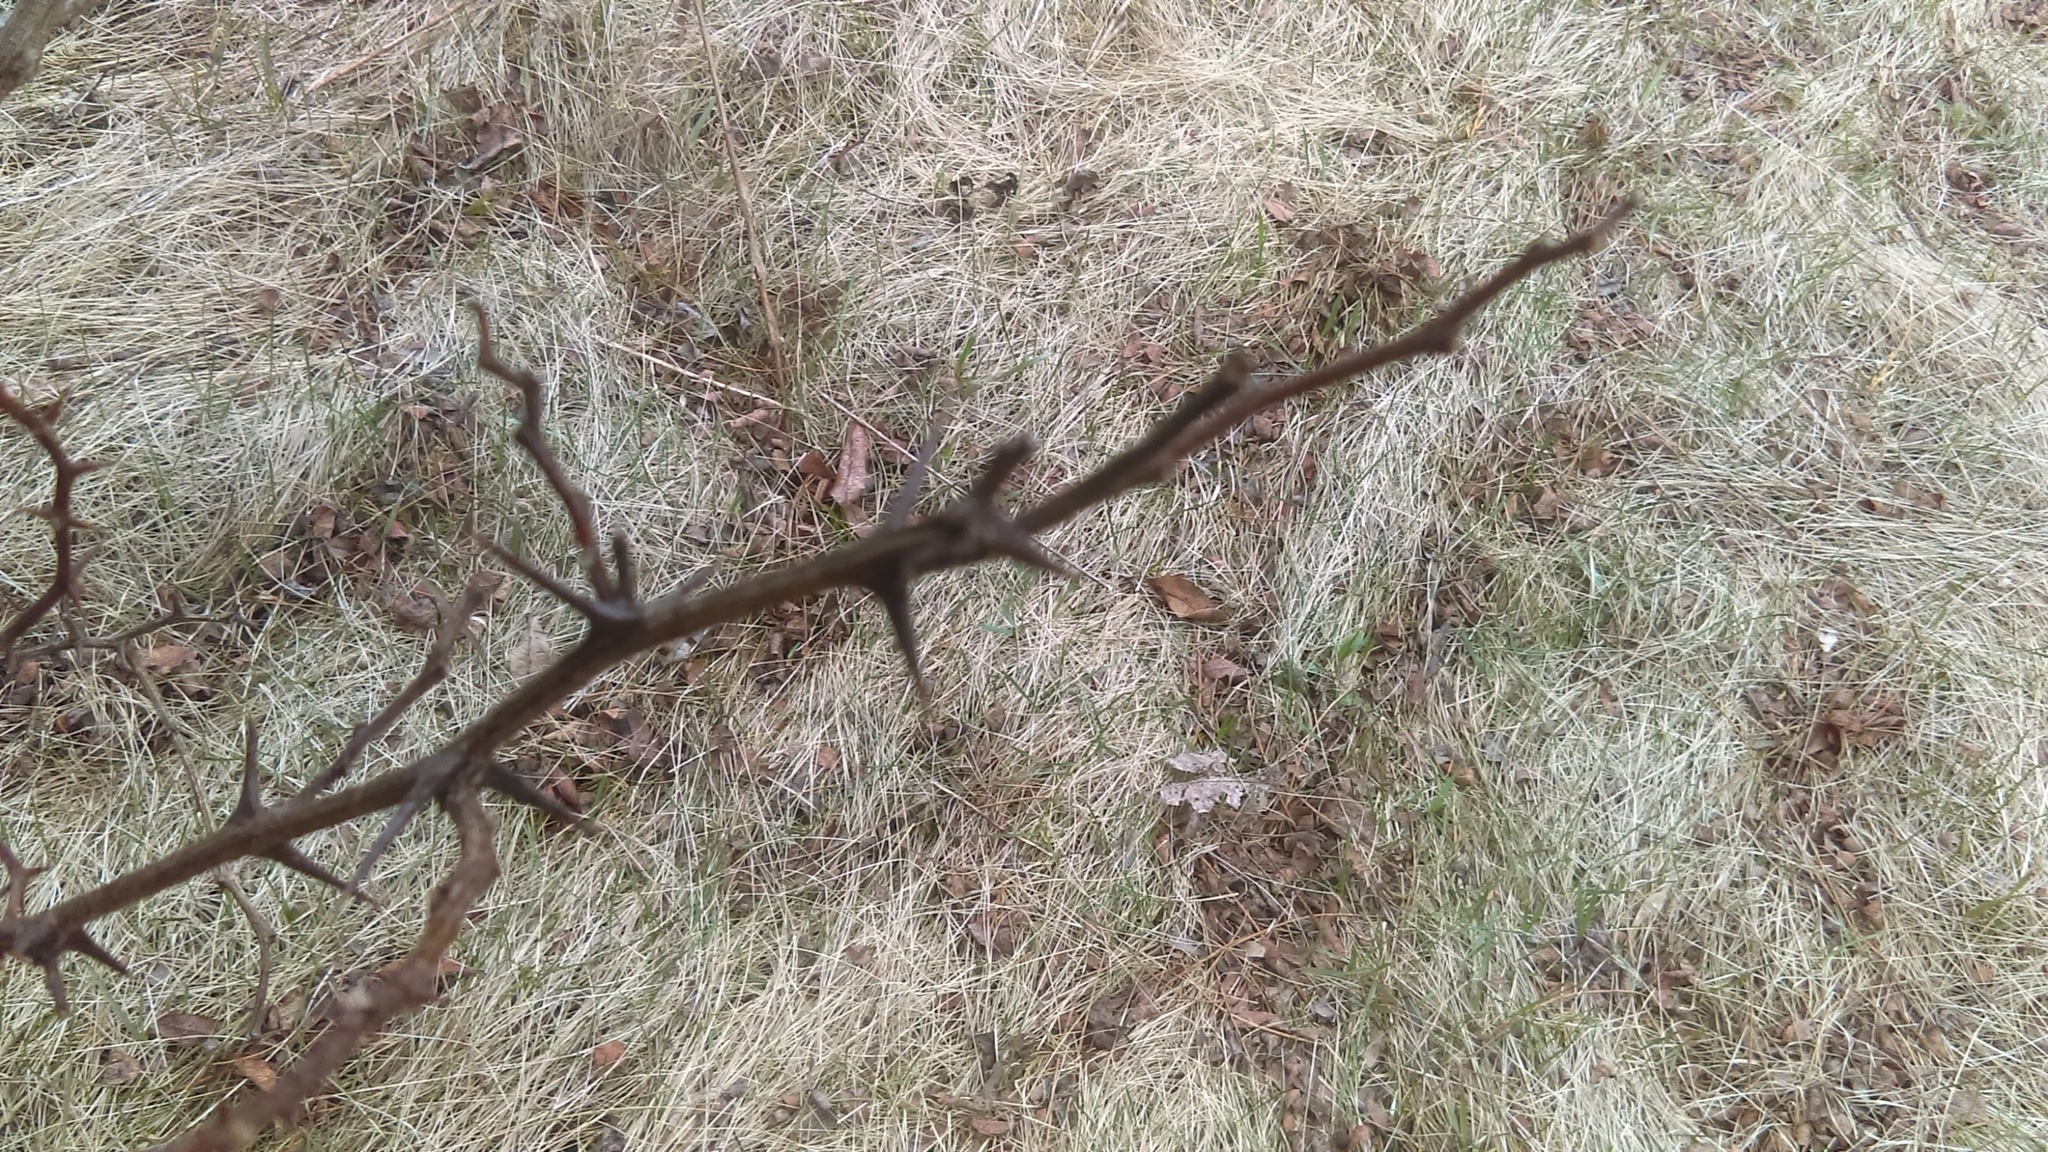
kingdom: Plantae
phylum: Tracheophyta
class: Magnoliopsida
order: Sapindales
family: Rutaceae
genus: Zanthoxylum
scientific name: Zanthoxylum americanum
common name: Northern prickly-ash
